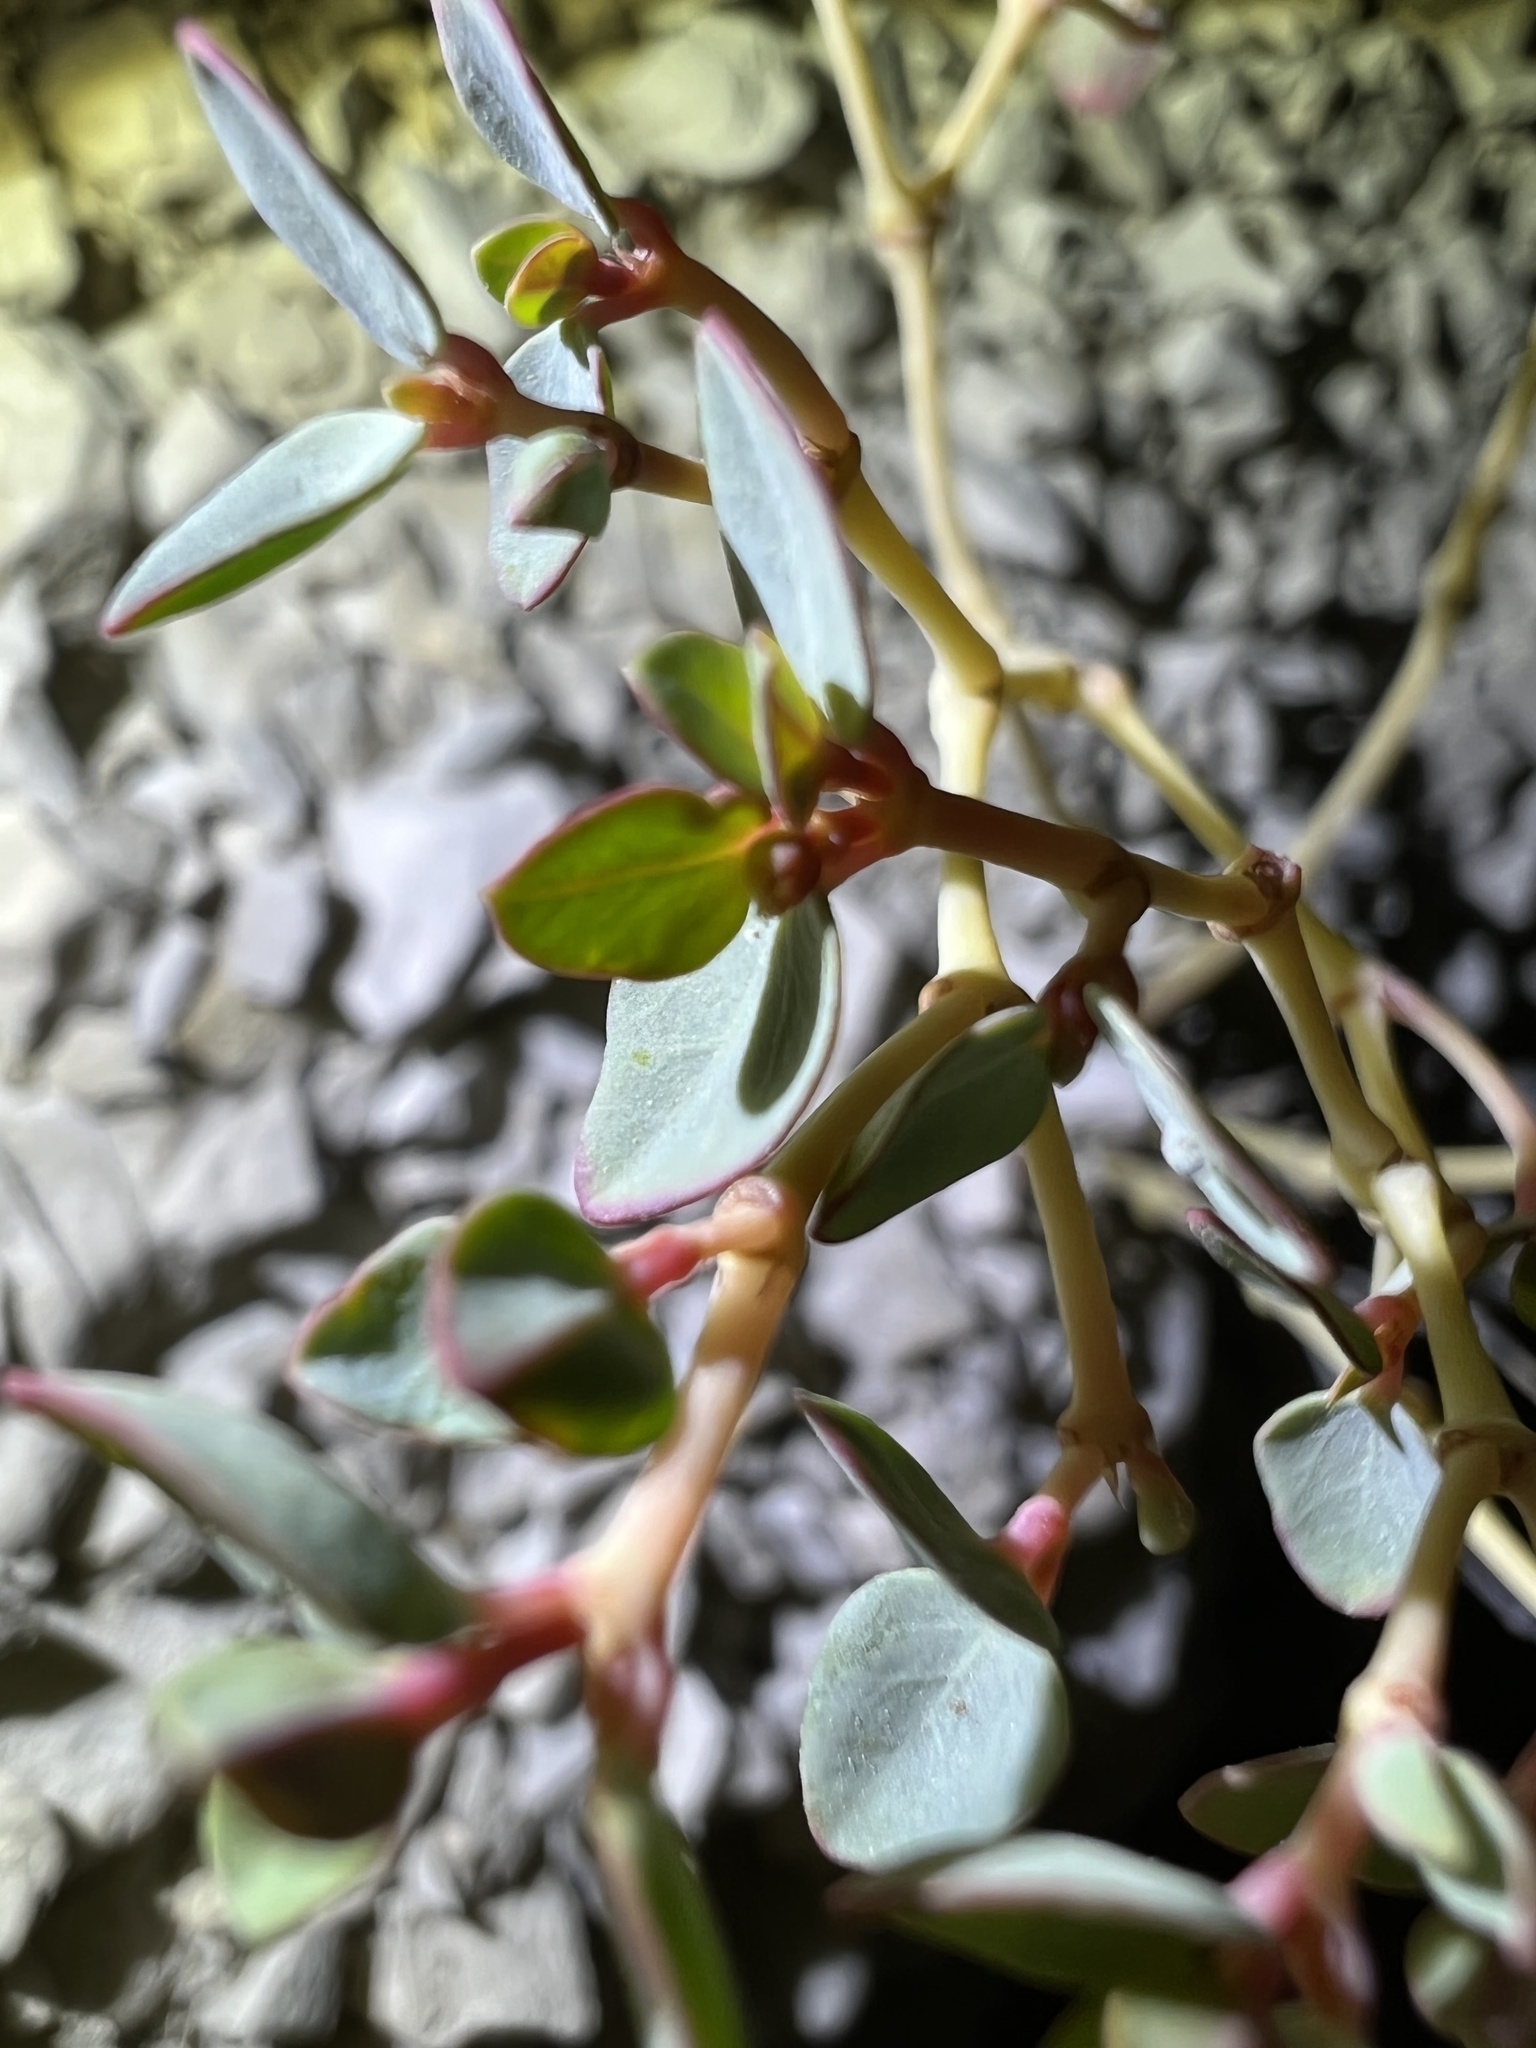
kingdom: Plantae
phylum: Tracheophyta
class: Magnoliopsida
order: Malpighiales
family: Euphorbiaceae
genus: Euphorbia
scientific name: Euphorbia perennans
